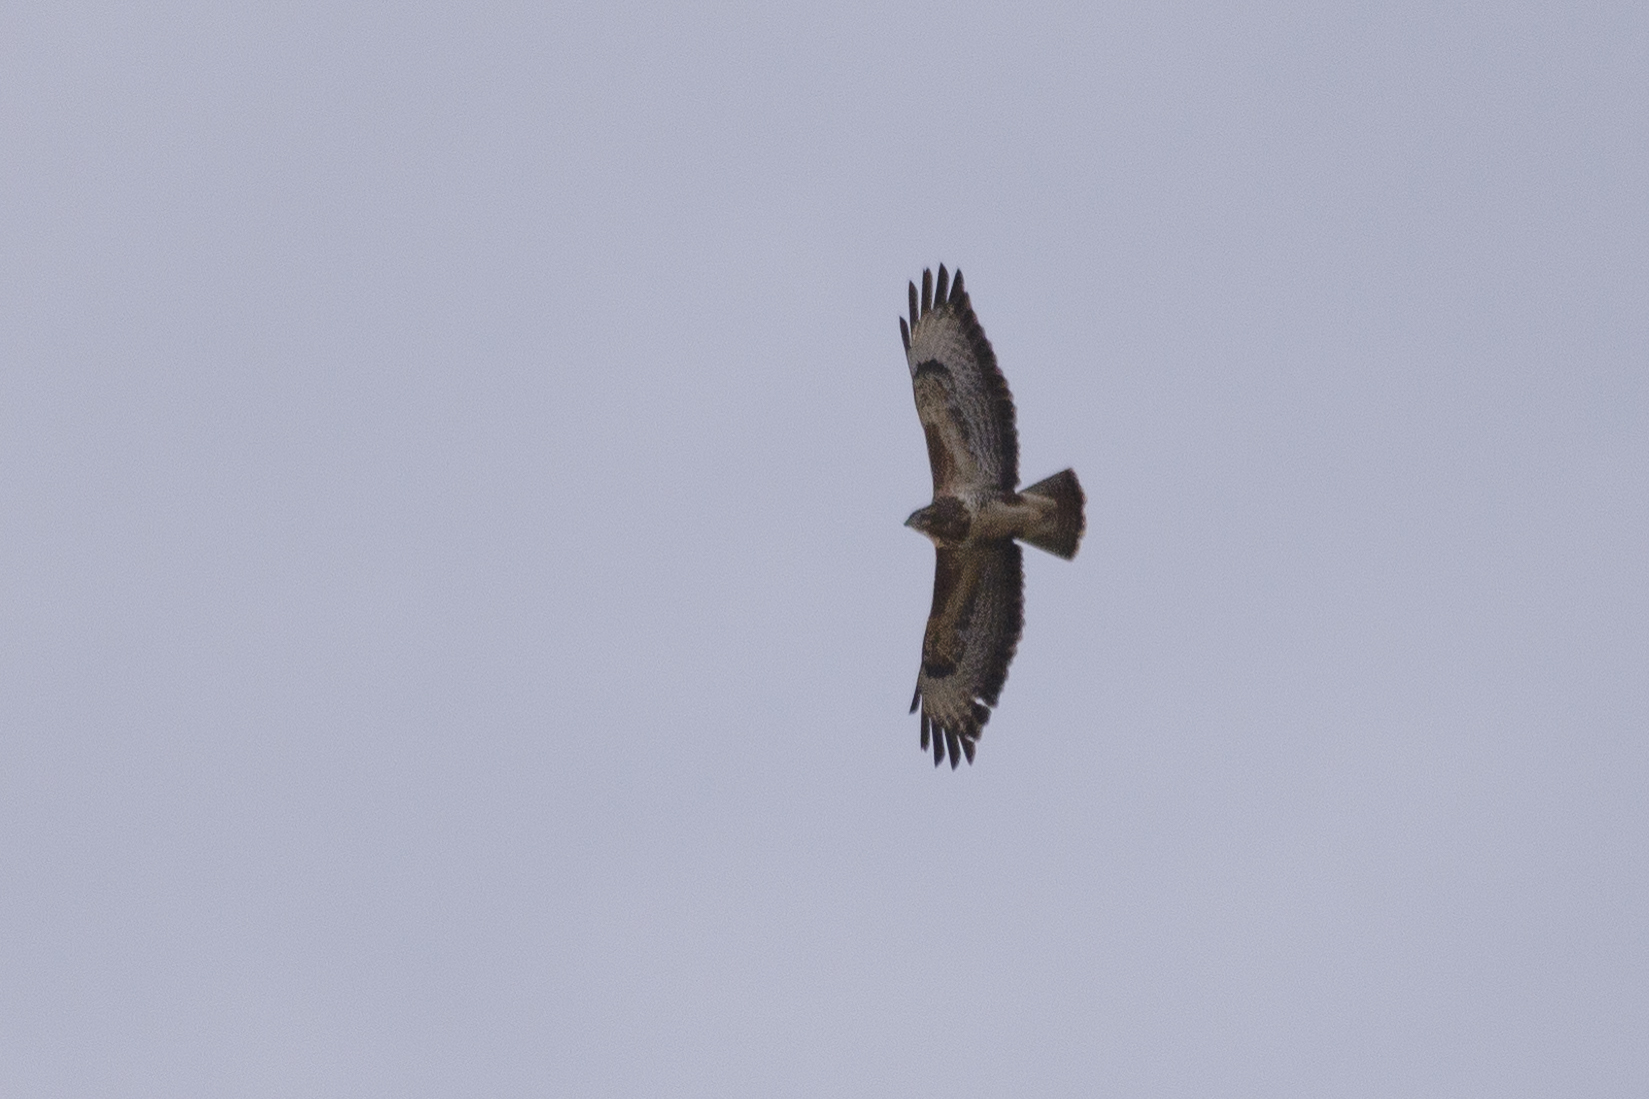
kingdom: Animalia
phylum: Chordata
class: Aves
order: Accipitriformes
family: Accipitridae
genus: Buteo
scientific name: Buteo buteo
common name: Common buzzard
